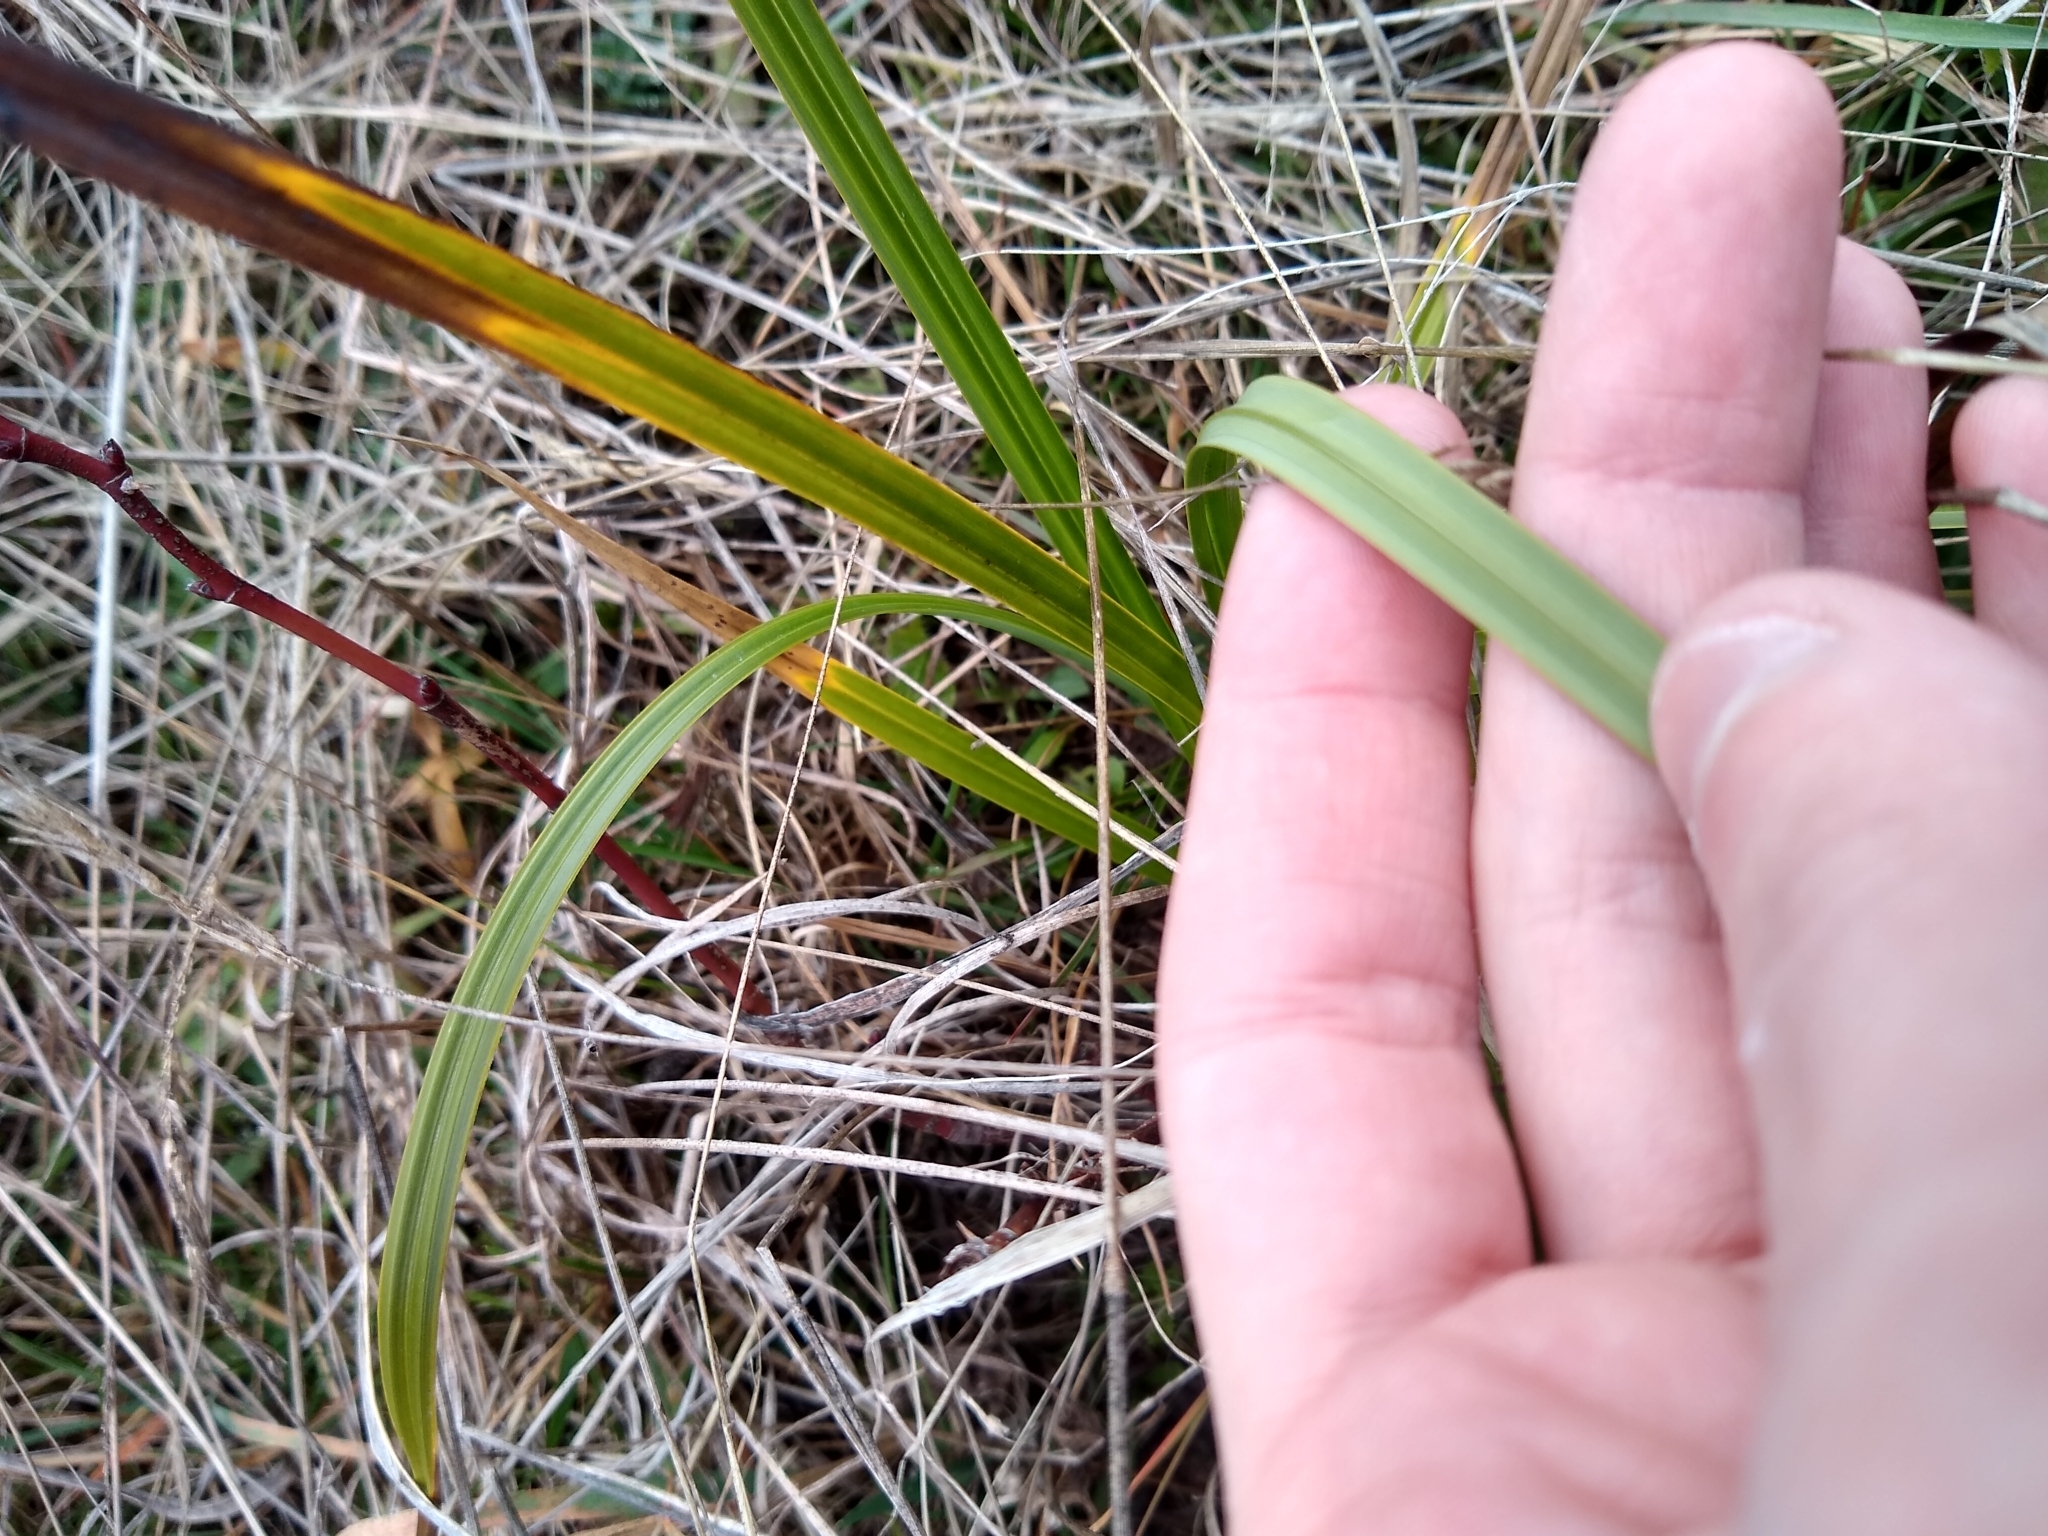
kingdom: Plantae
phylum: Tracheophyta
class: Liliopsida
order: Poales
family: Cyperaceae
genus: Carex
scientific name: Carex obnupta
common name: Slough sedge
